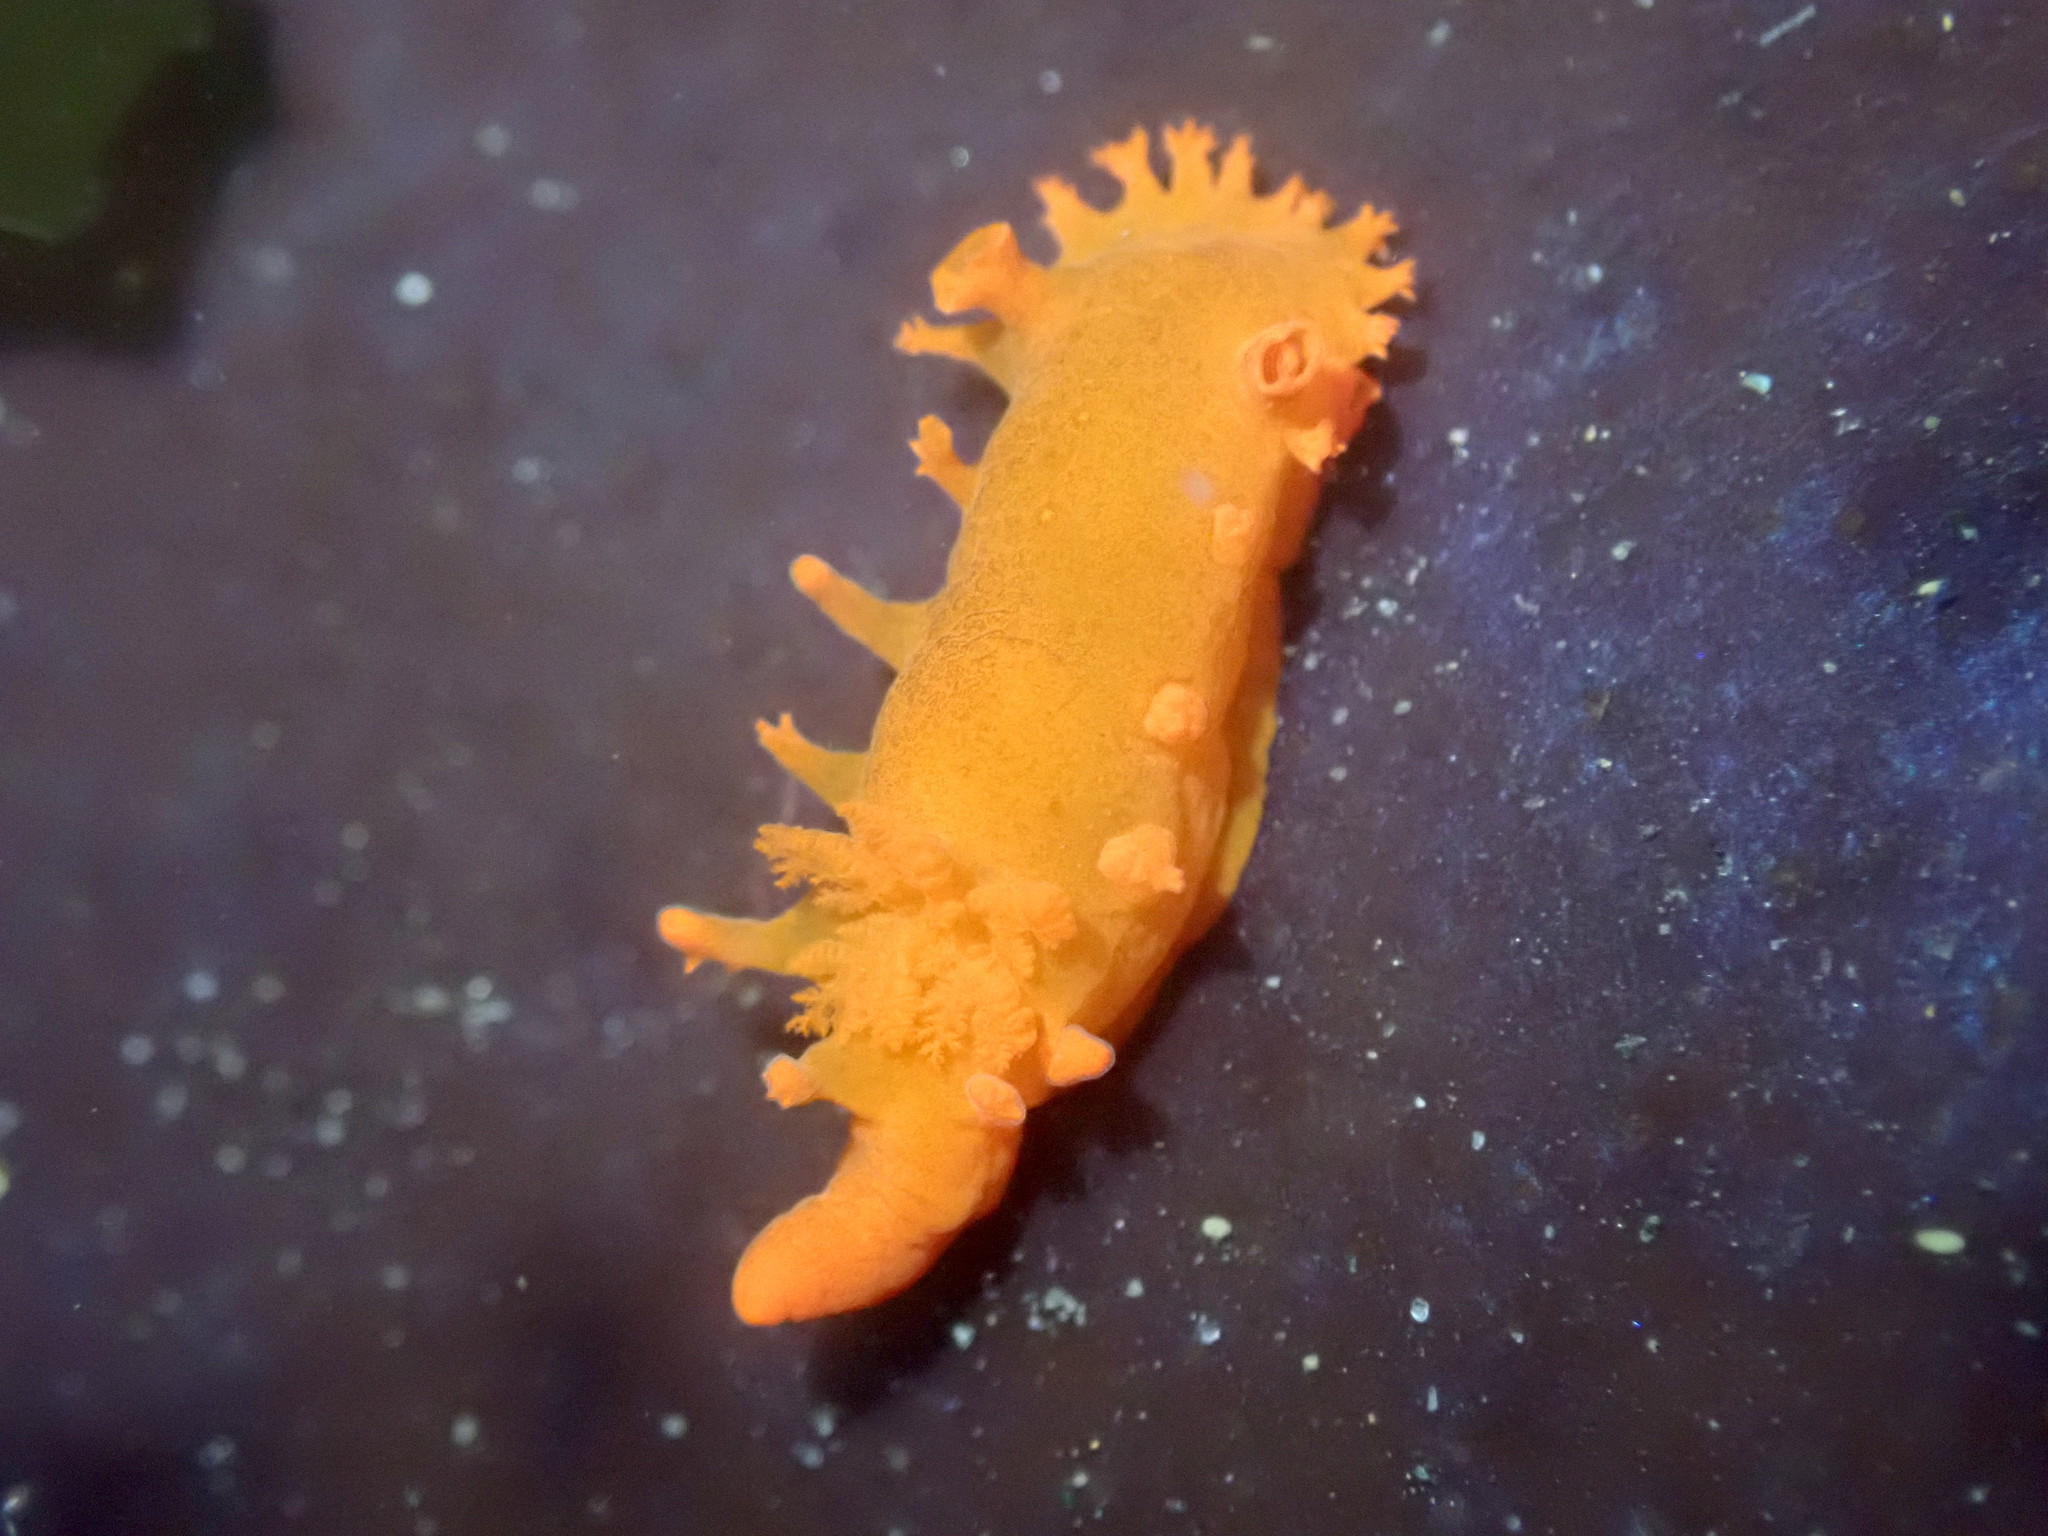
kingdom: Animalia
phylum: Mollusca
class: Gastropoda
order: Nudibranchia
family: Polyceridae
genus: Triopha
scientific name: Triopha maculata
